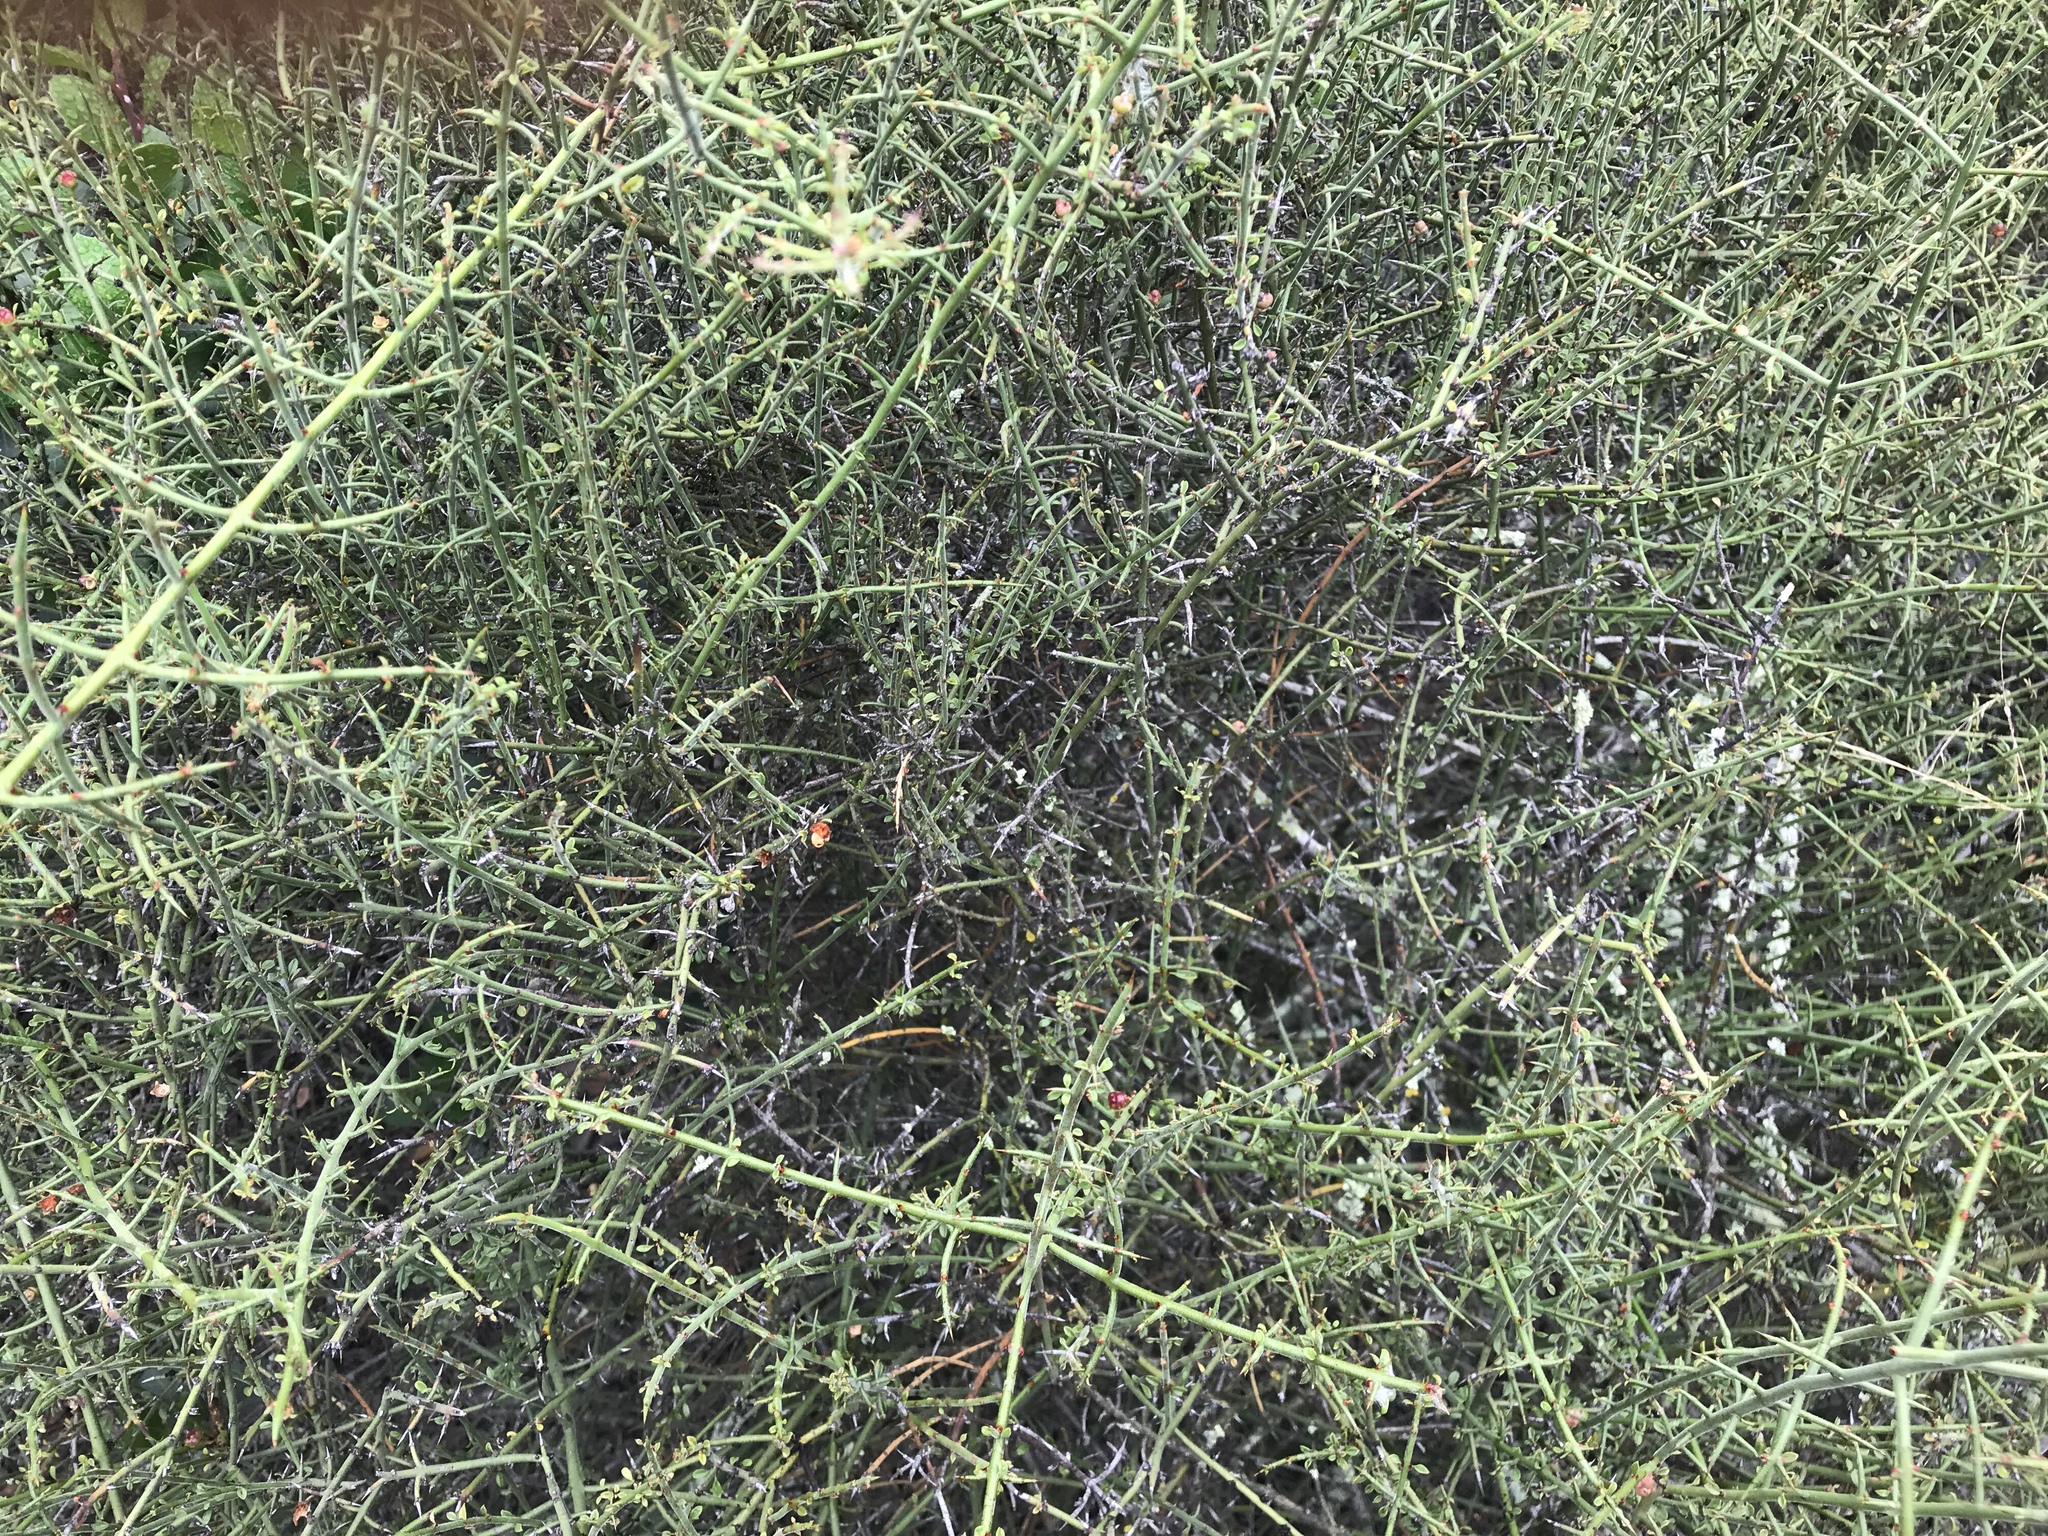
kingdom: Plantae
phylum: Tracheophyta
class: Magnoliopsida
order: Rosales
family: Rhamnaceae
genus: Adolphia
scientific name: Adolphia californica
